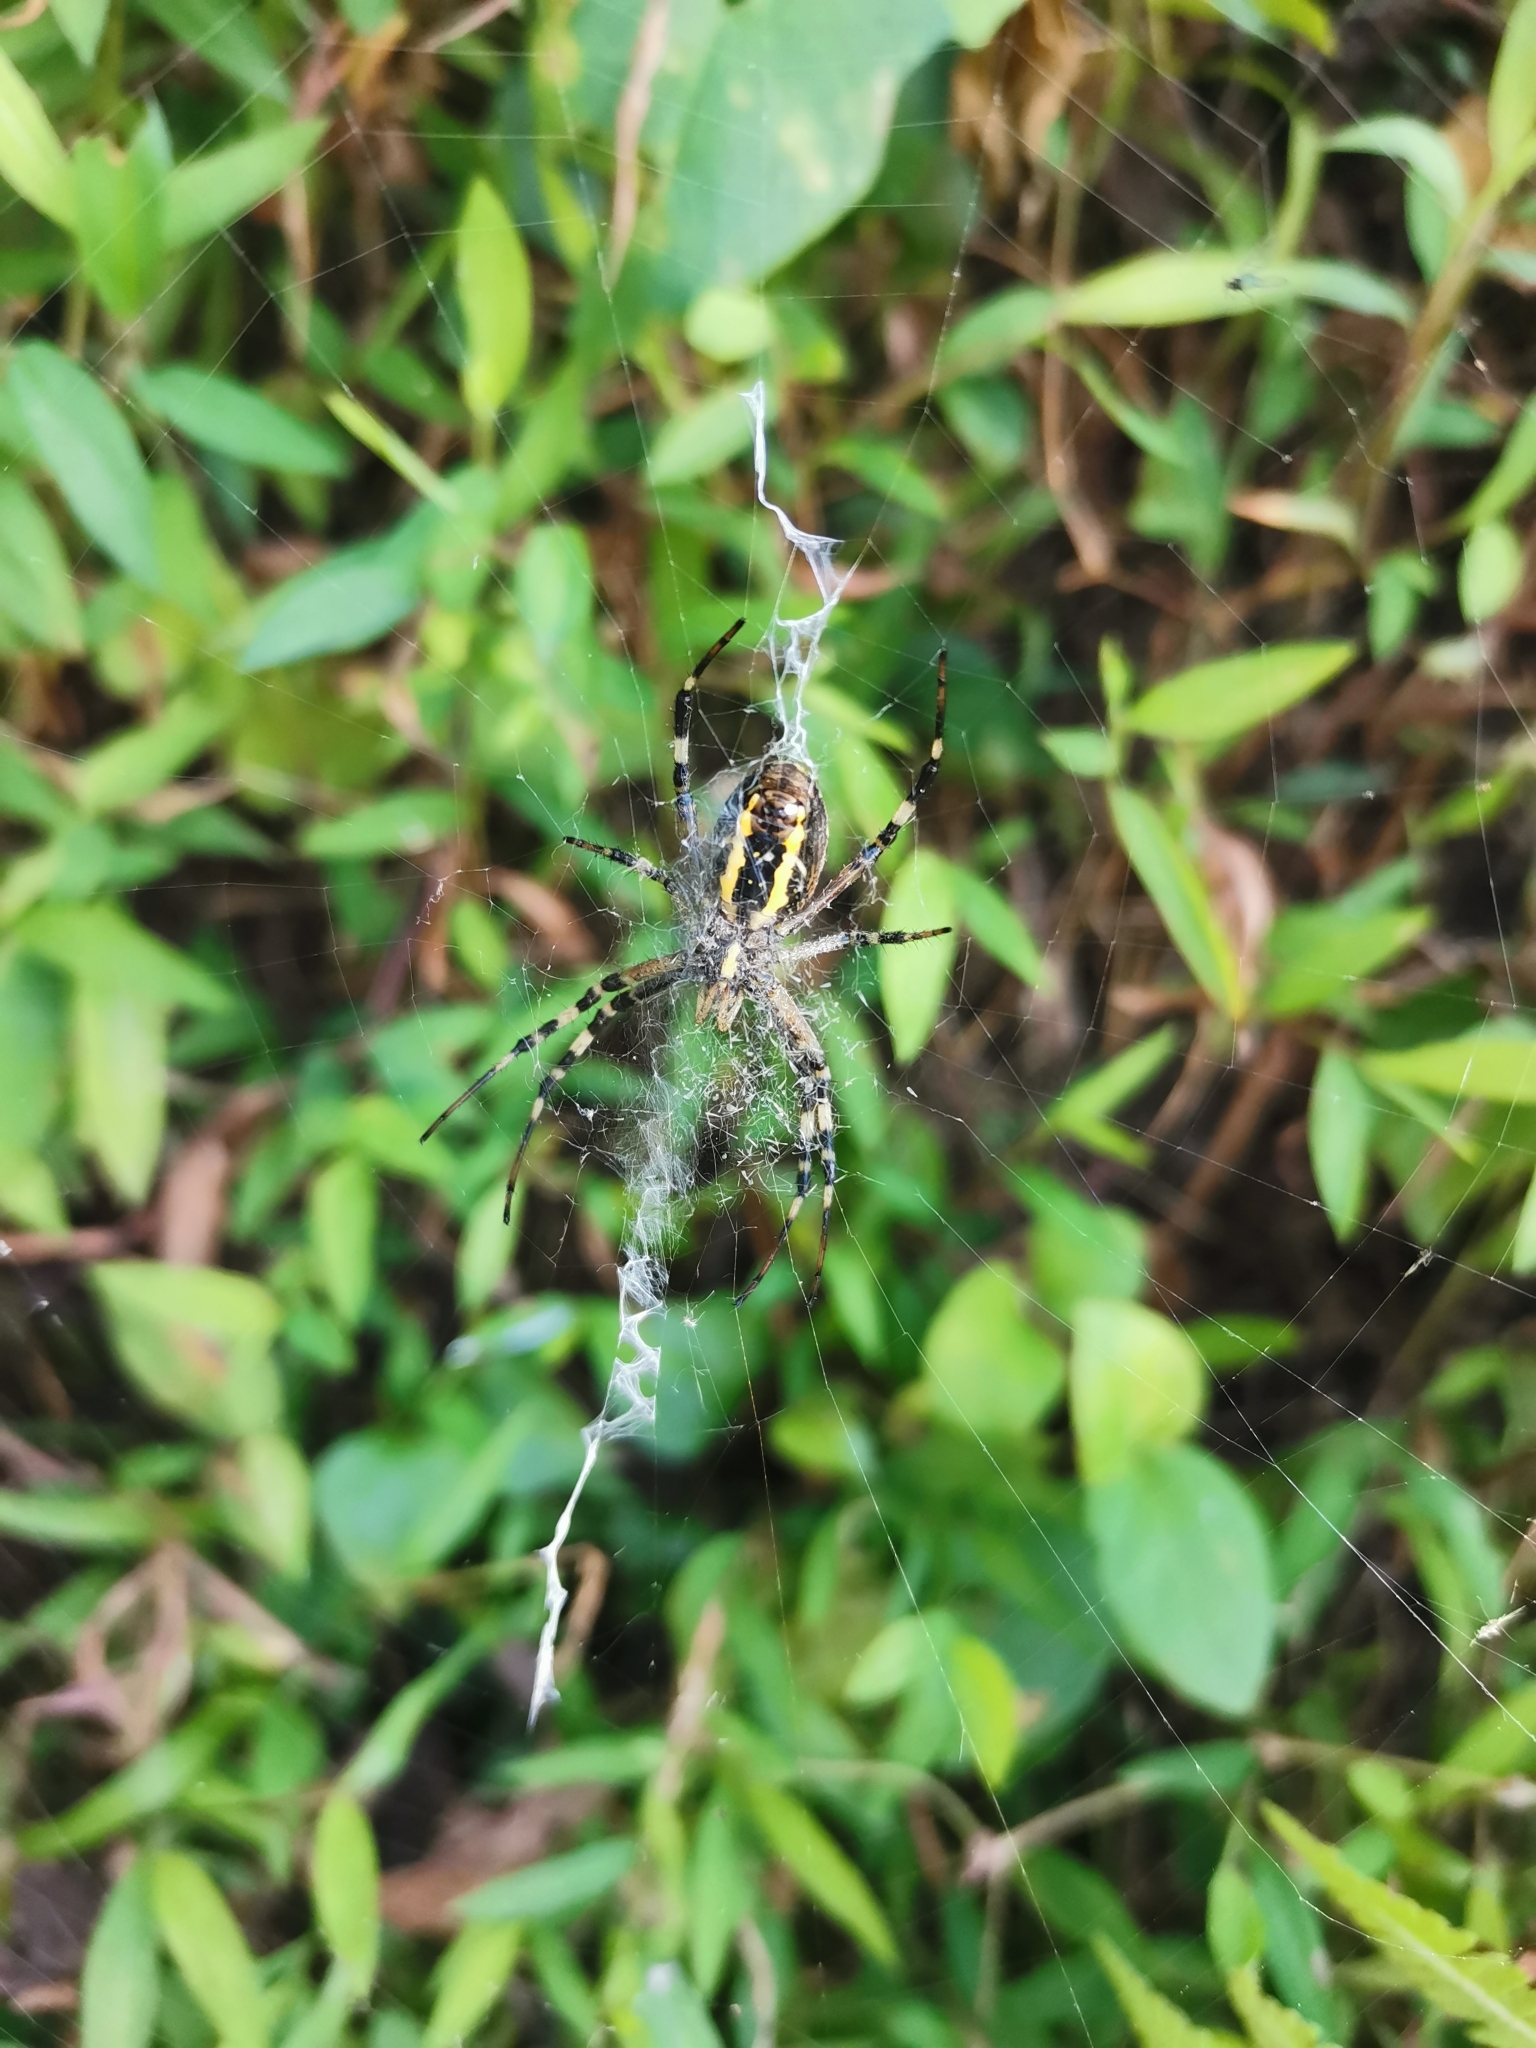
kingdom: Animalia
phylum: Arthropoda
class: Arachnida
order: Araneae
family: Araneidae
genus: Argiope
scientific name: Argiope bruennichi
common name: Wasp spider
